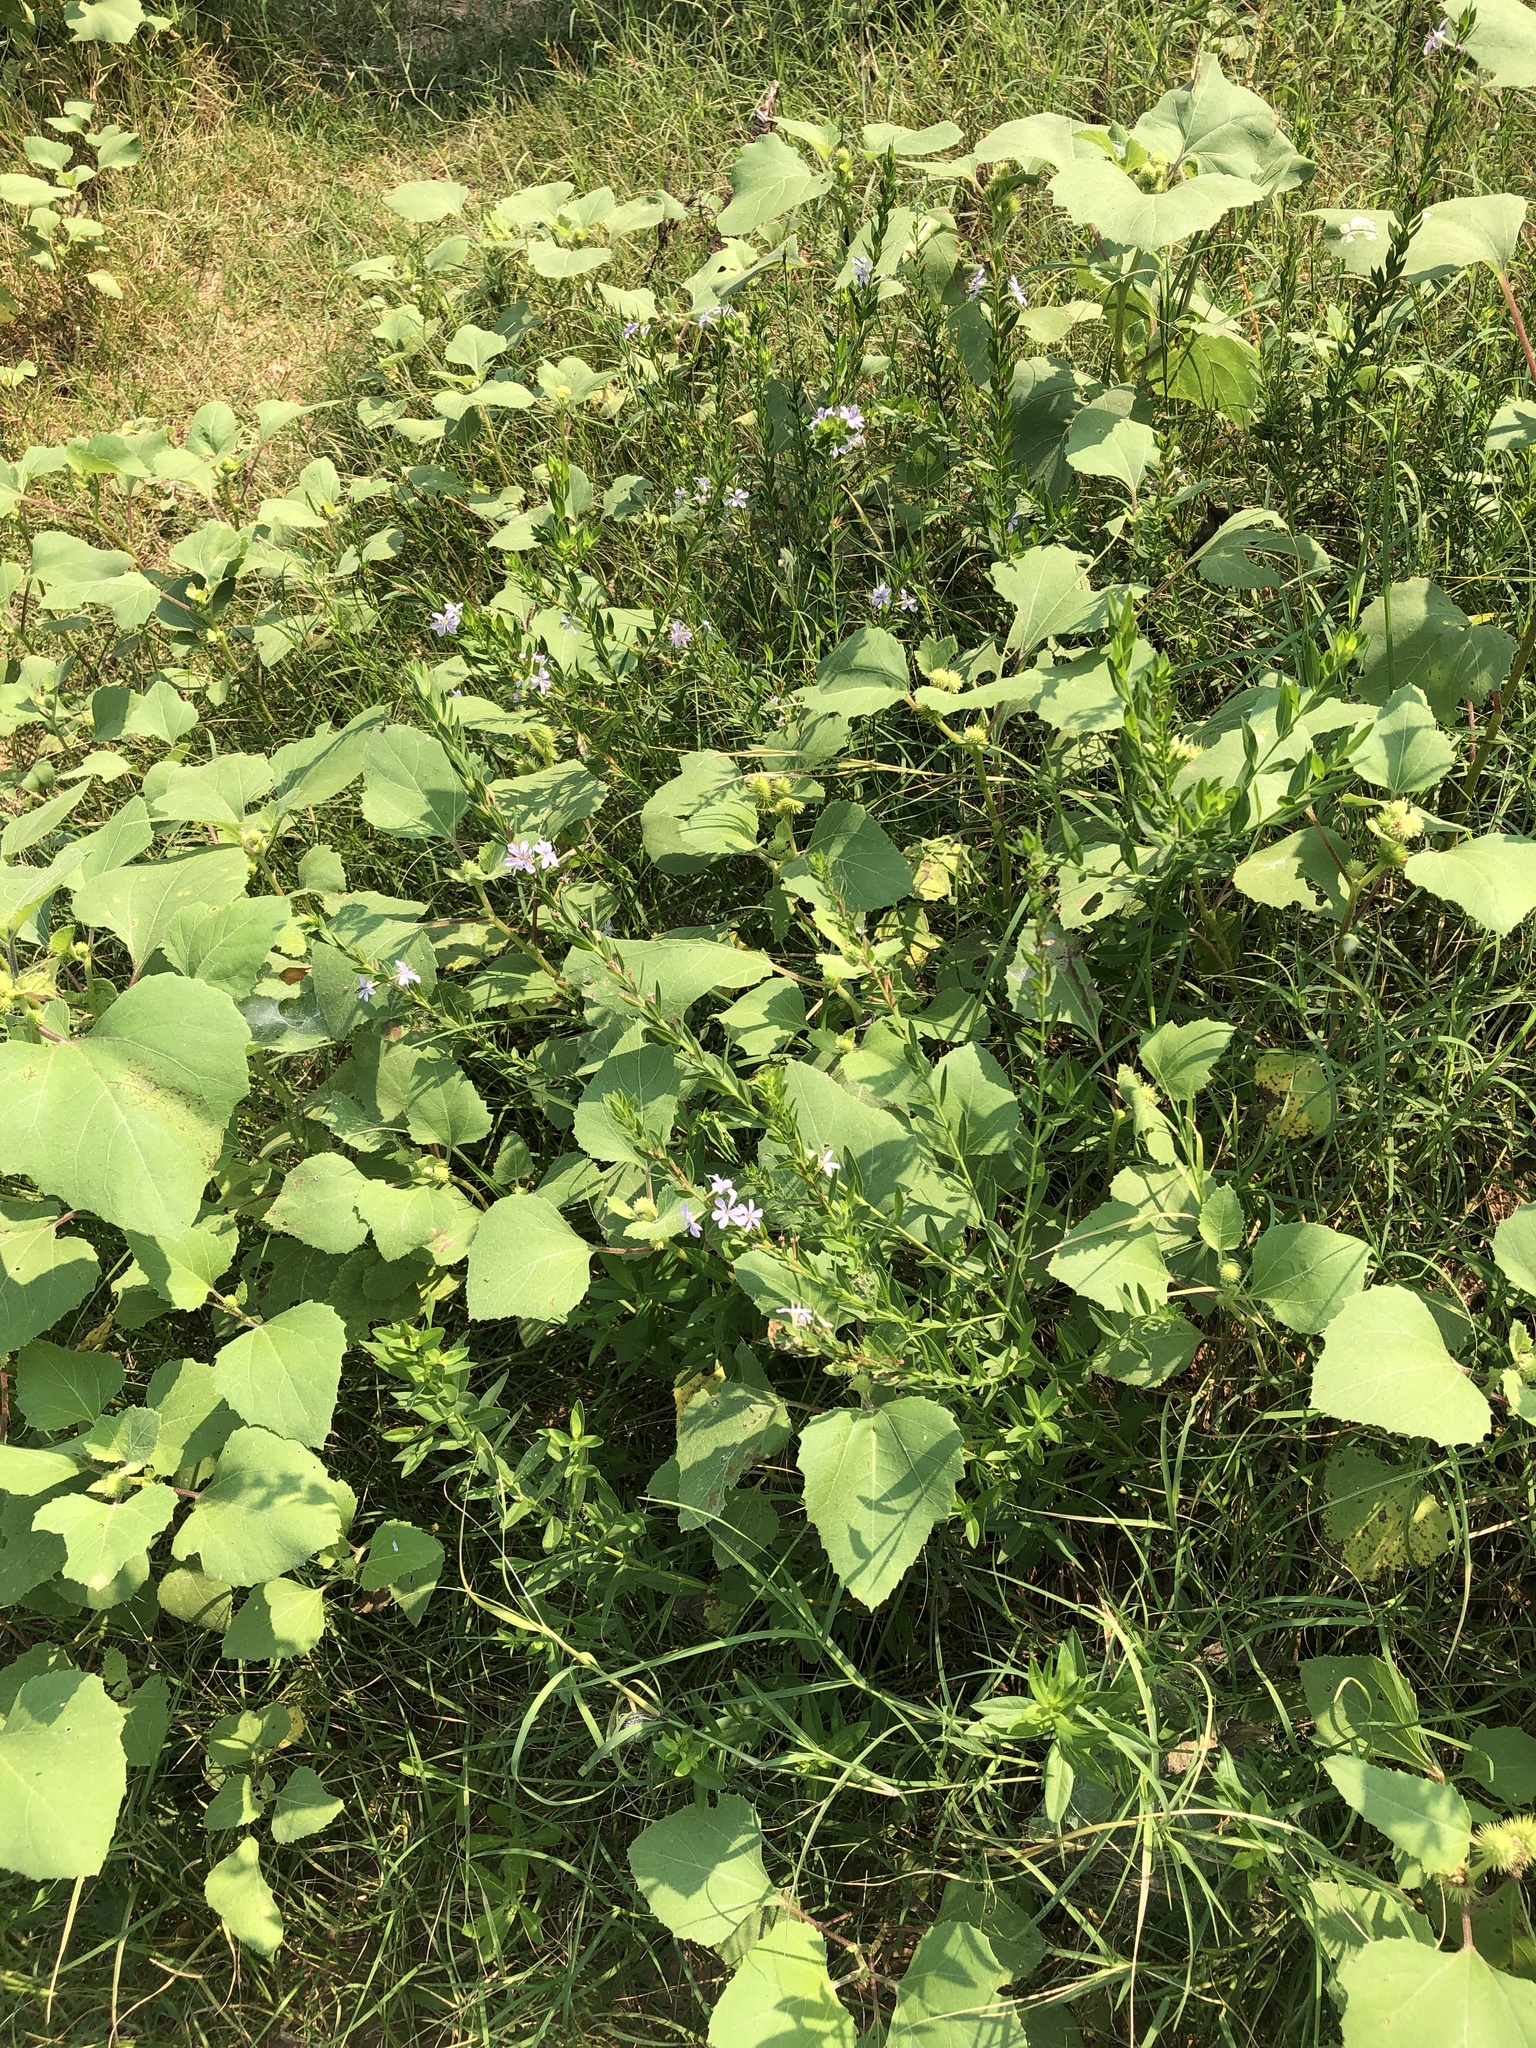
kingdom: Plantae
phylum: Tracheophyta
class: Magnoliopsida
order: Myrtales
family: Lythraceae
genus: Lythrum
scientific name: Lythrum alatum
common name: Winged loosestrife
